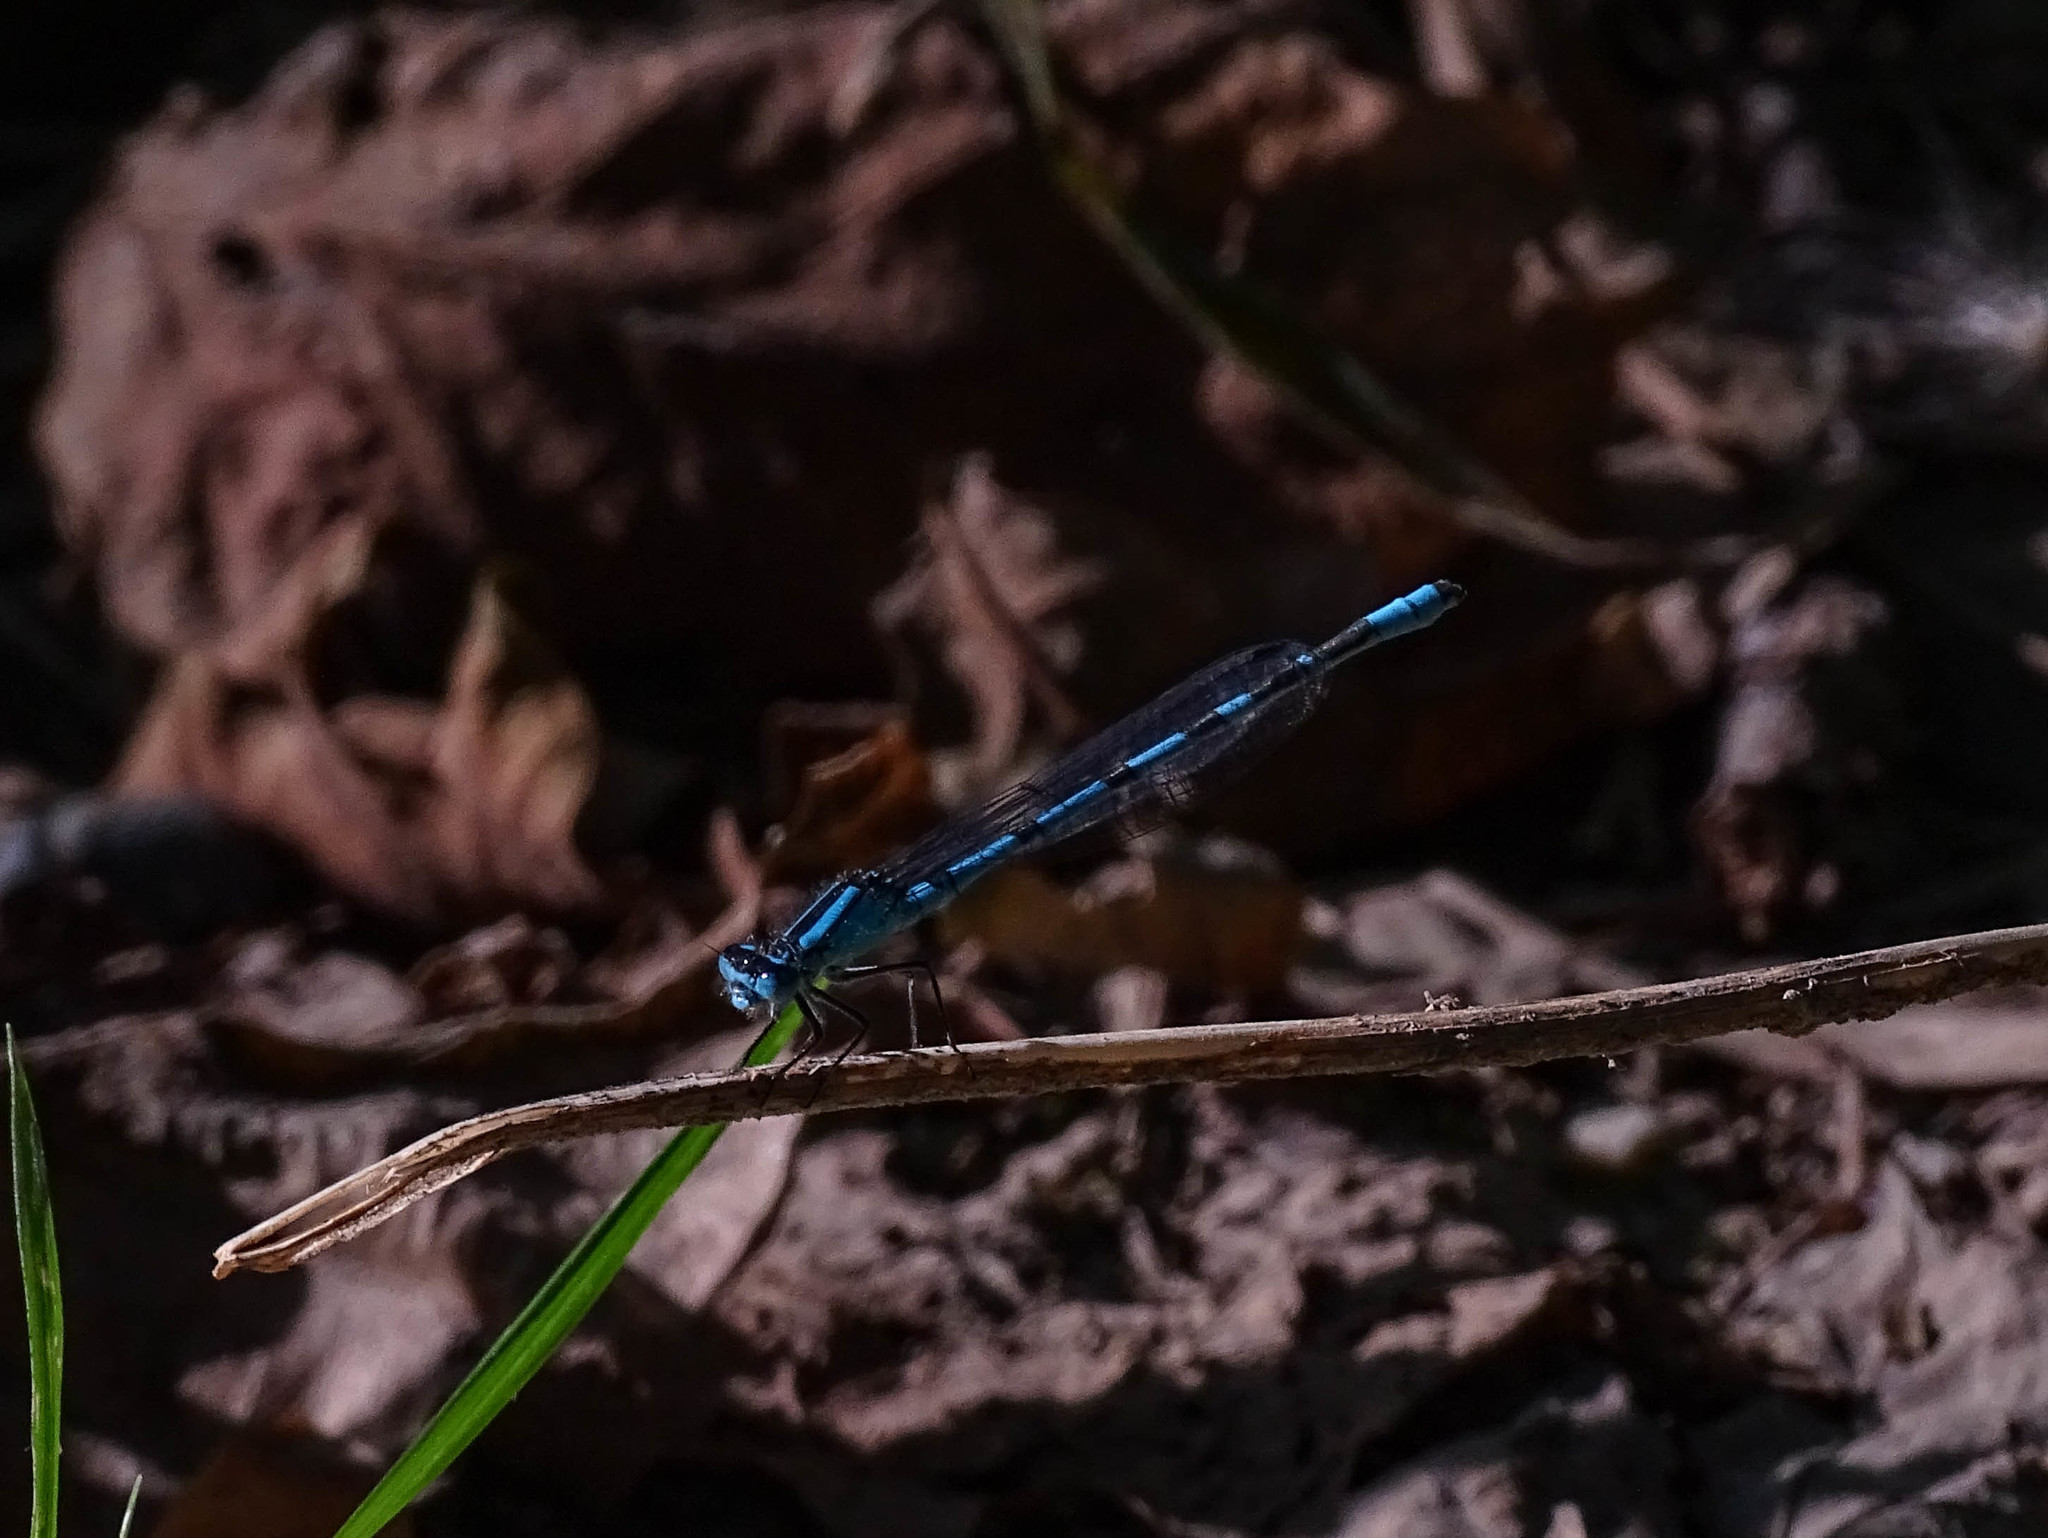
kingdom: Animalia
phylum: Arthropoda
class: Insecta
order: Odonata
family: Coenagrionidae
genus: Enallagma
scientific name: Enallagma cyathigerum
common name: Common blue damselfly
